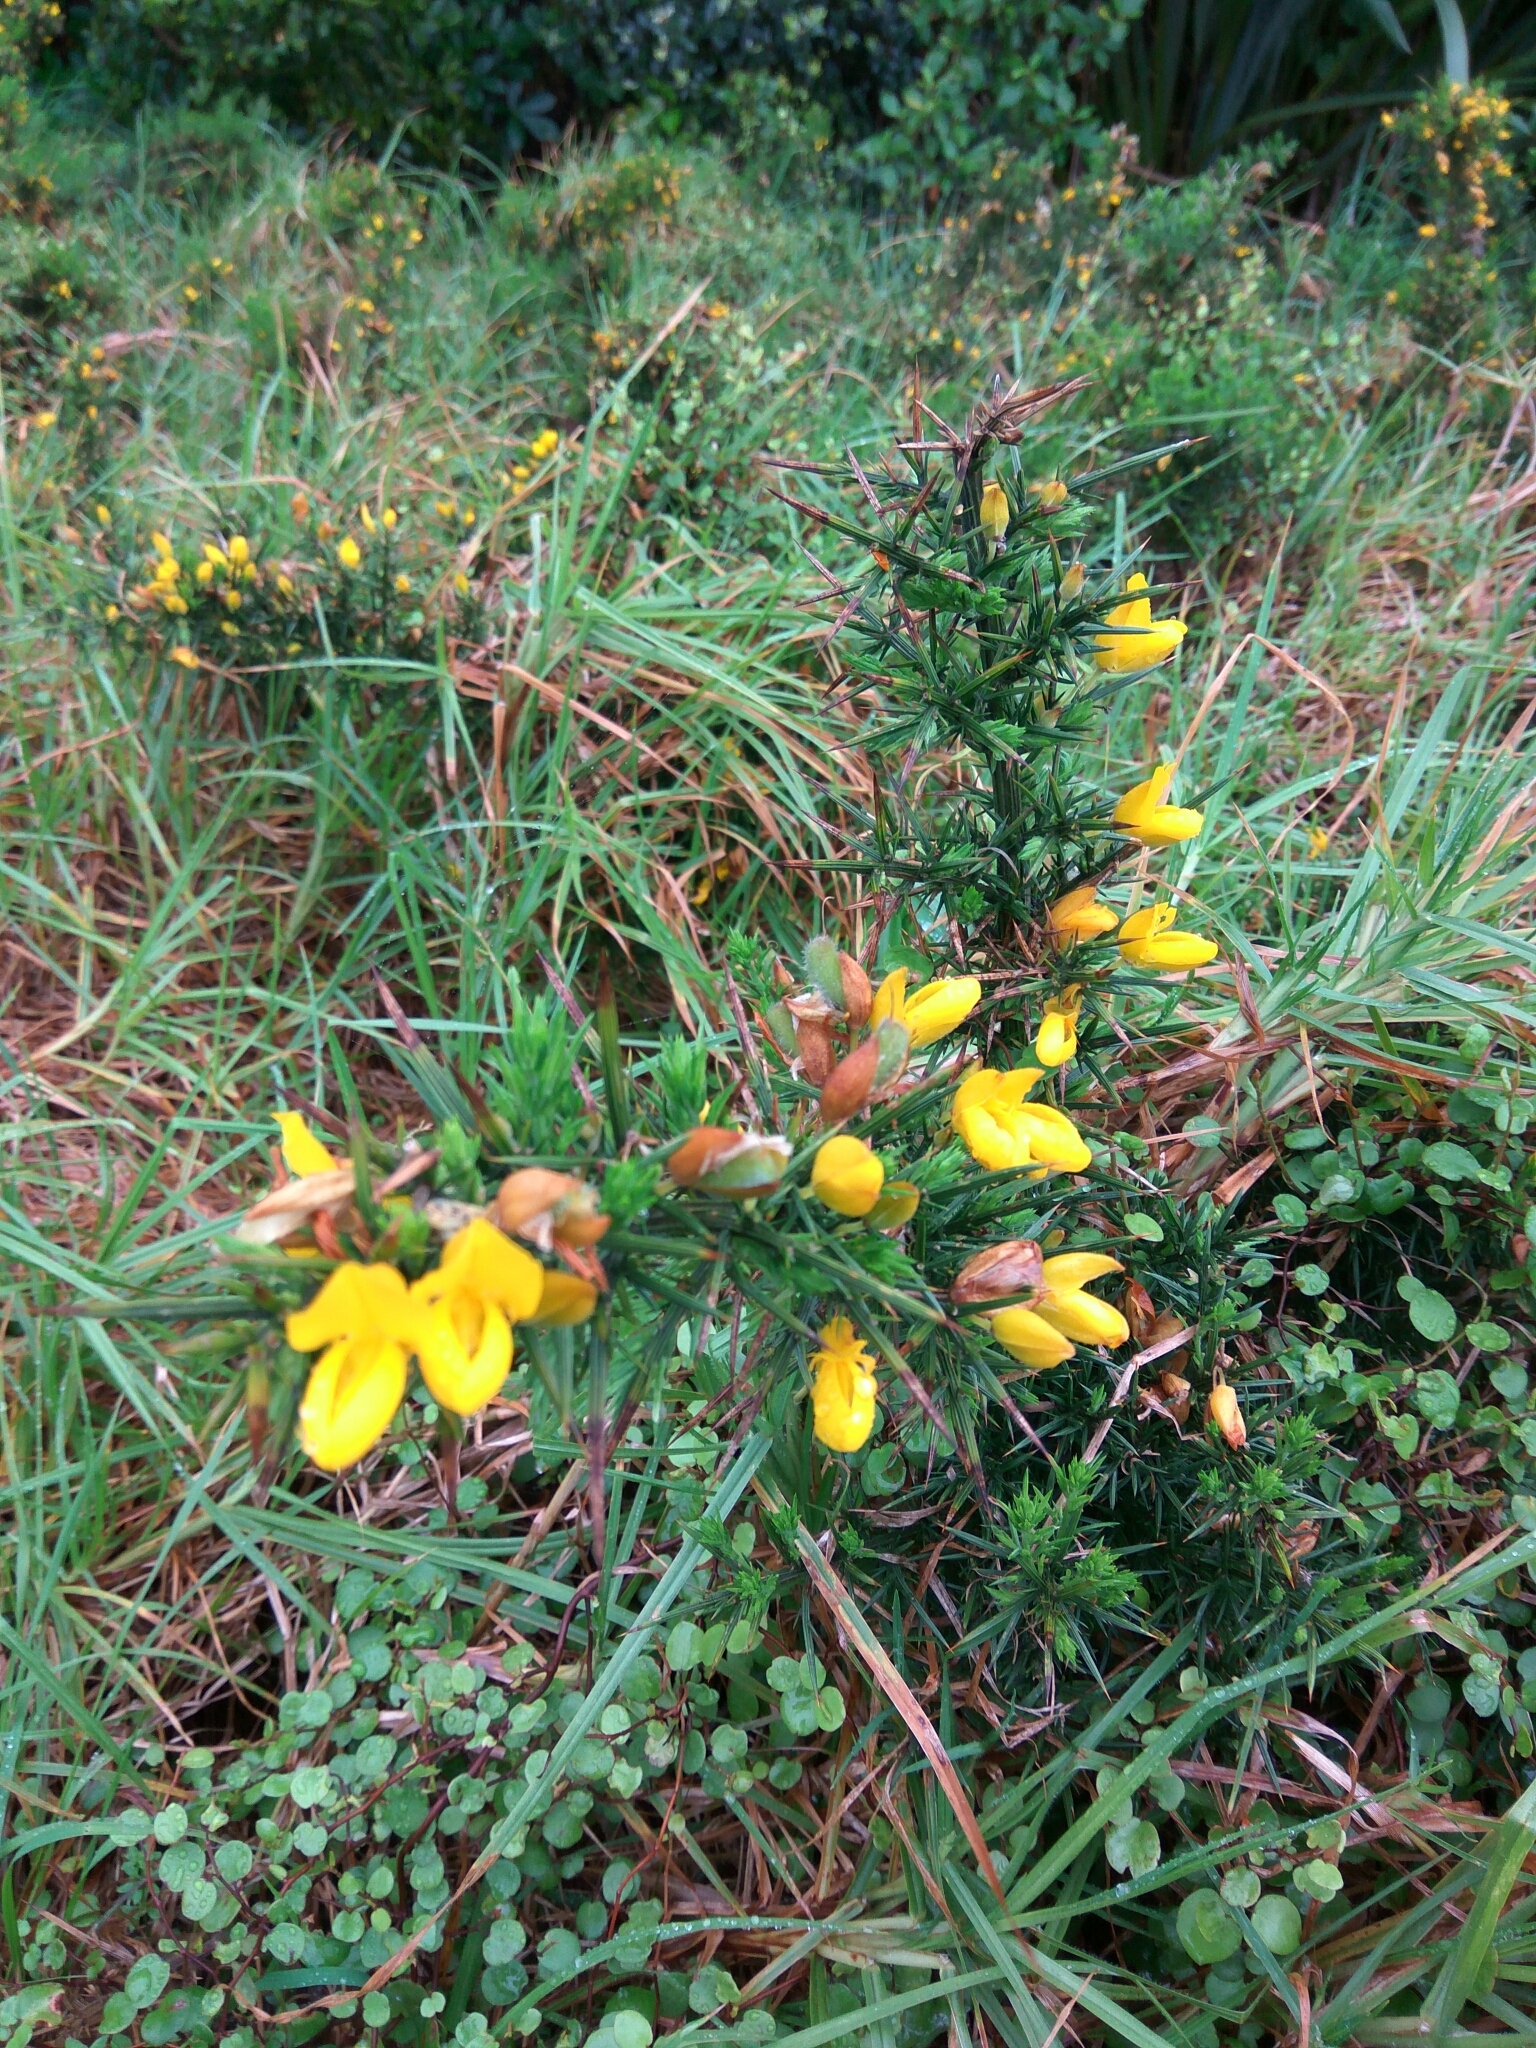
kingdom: Plantae
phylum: Tracheophyta
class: Magnoliopsida
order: Fabales
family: Fabaceae
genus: Ulex
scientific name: Ulex europaeus
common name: Common gorse
